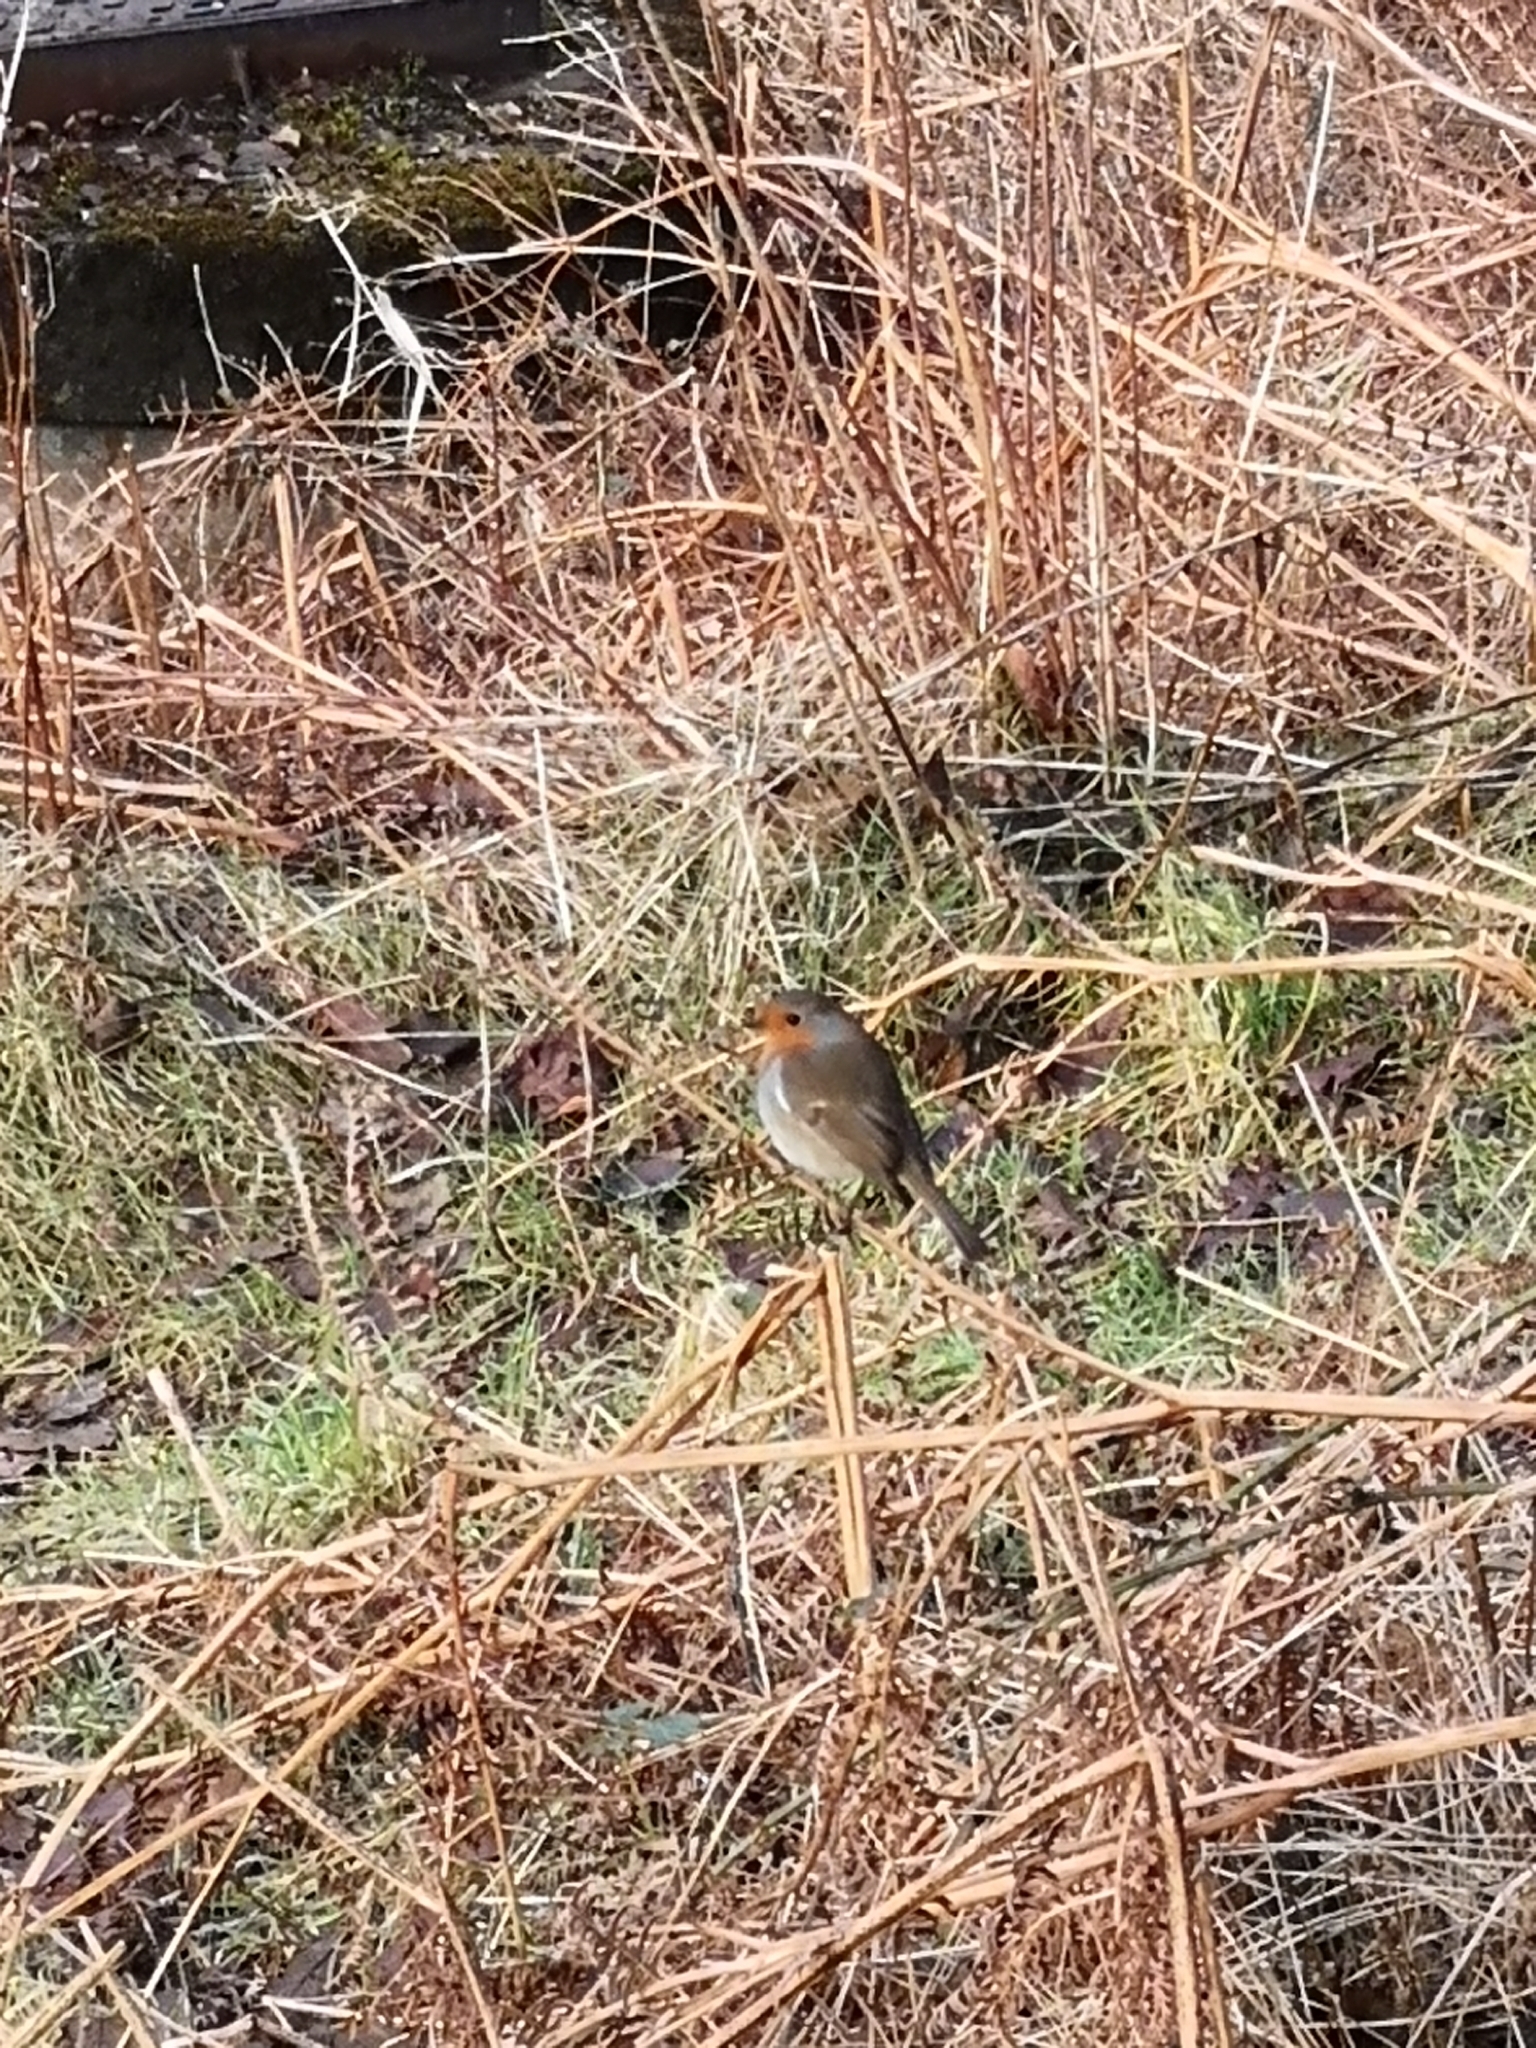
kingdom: Animalia
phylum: Chordata
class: Aves
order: Passeriformes
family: Muscicapidae
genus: Erithacus
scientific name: Erithacus rubecula
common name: European robin
